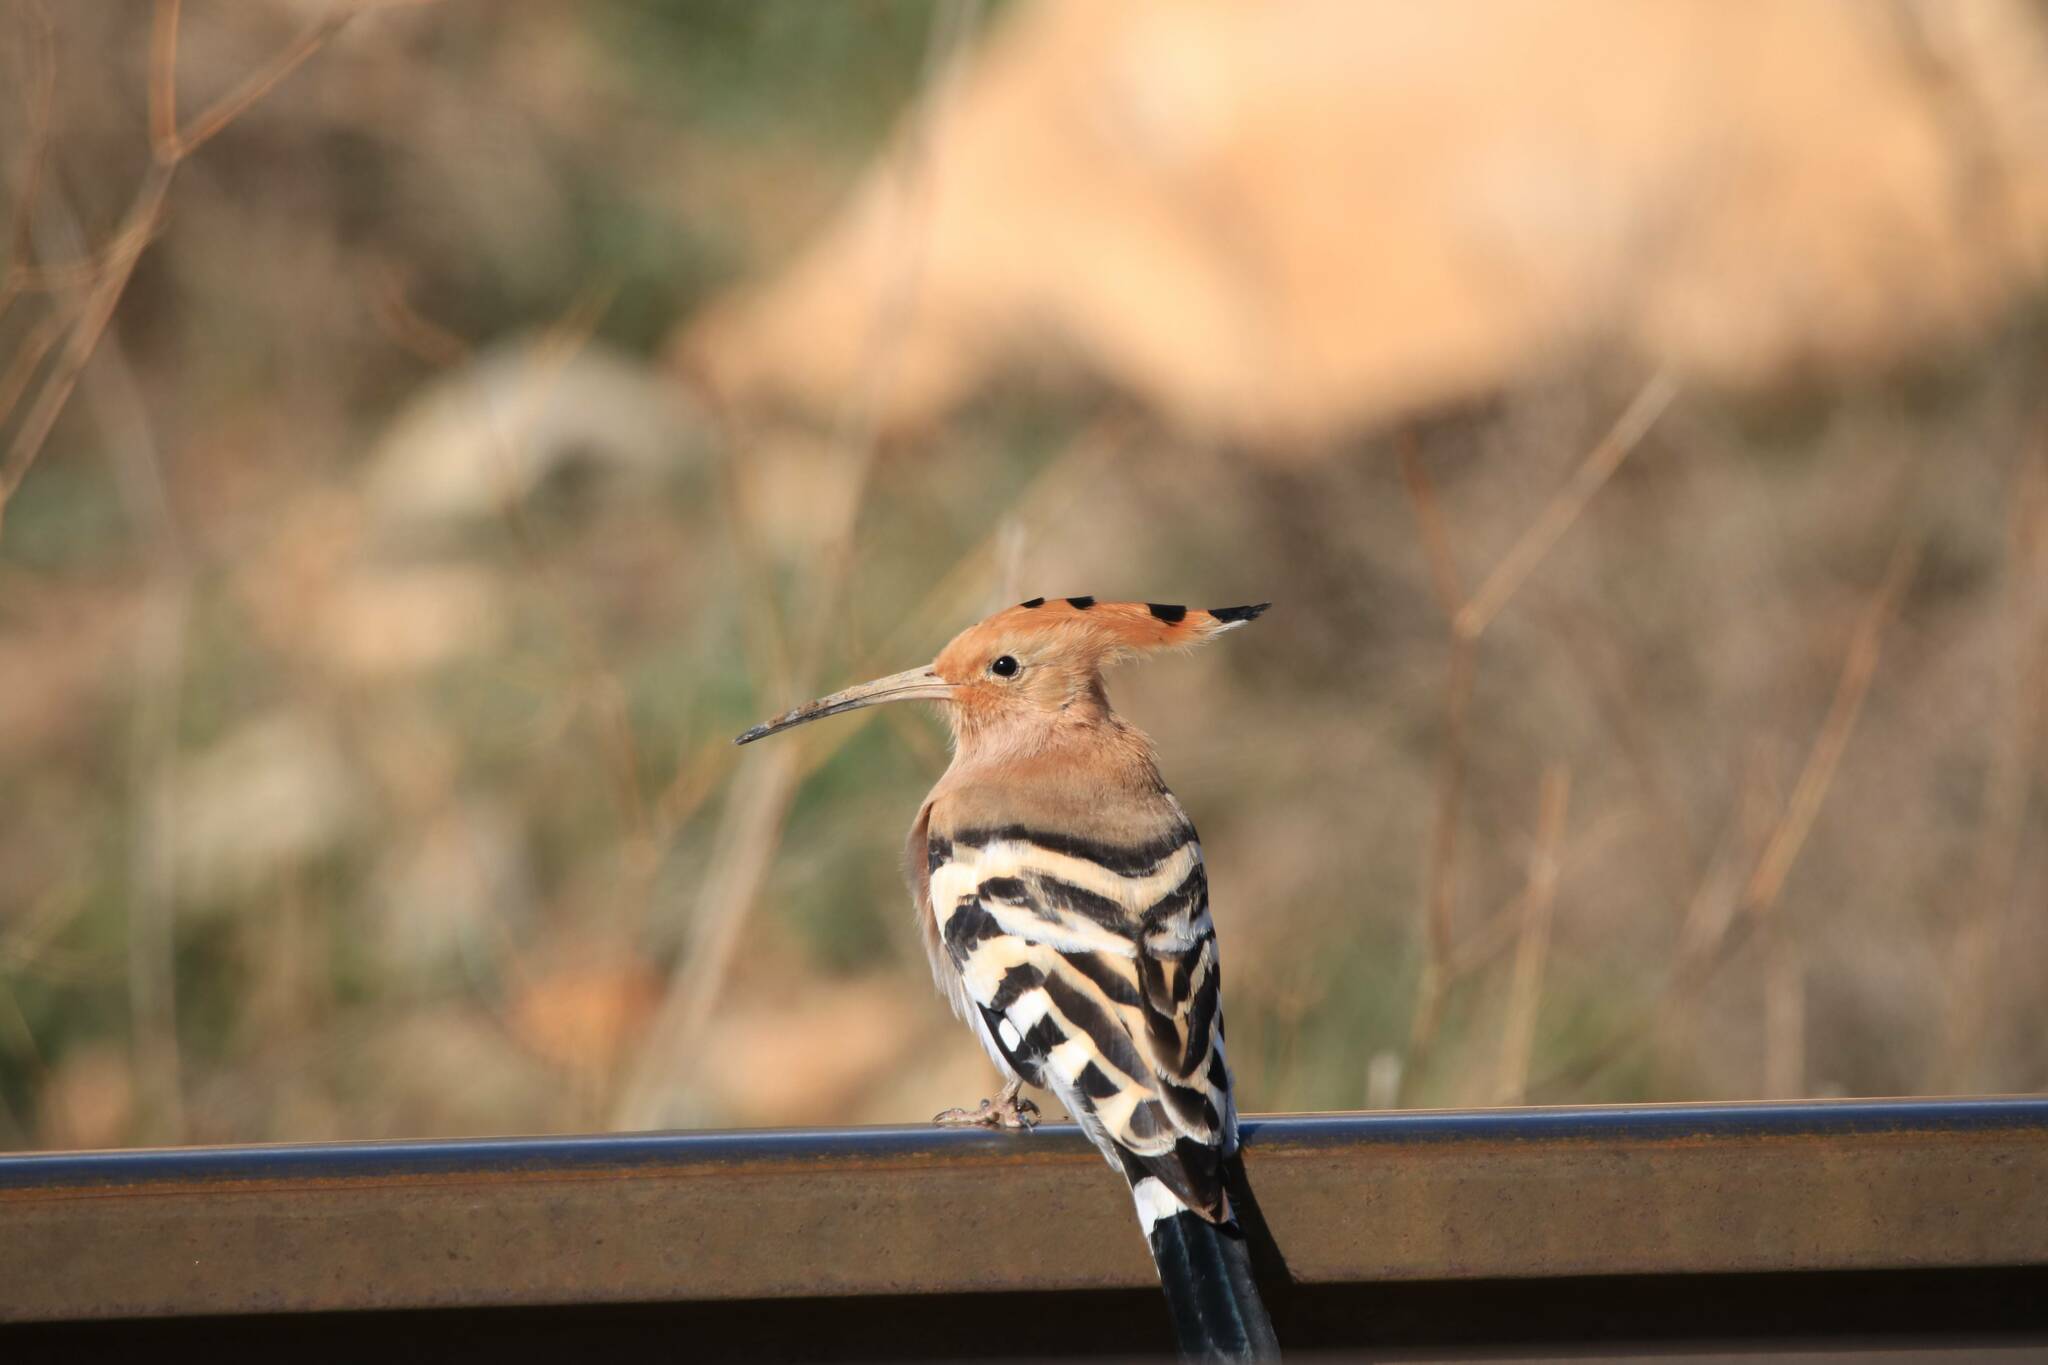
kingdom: Animalia
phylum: Chordata
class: Aves
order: Bucerotiformes
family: Upupidae
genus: Upupa
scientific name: Upupa epops
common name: Eurasian hoopoe
